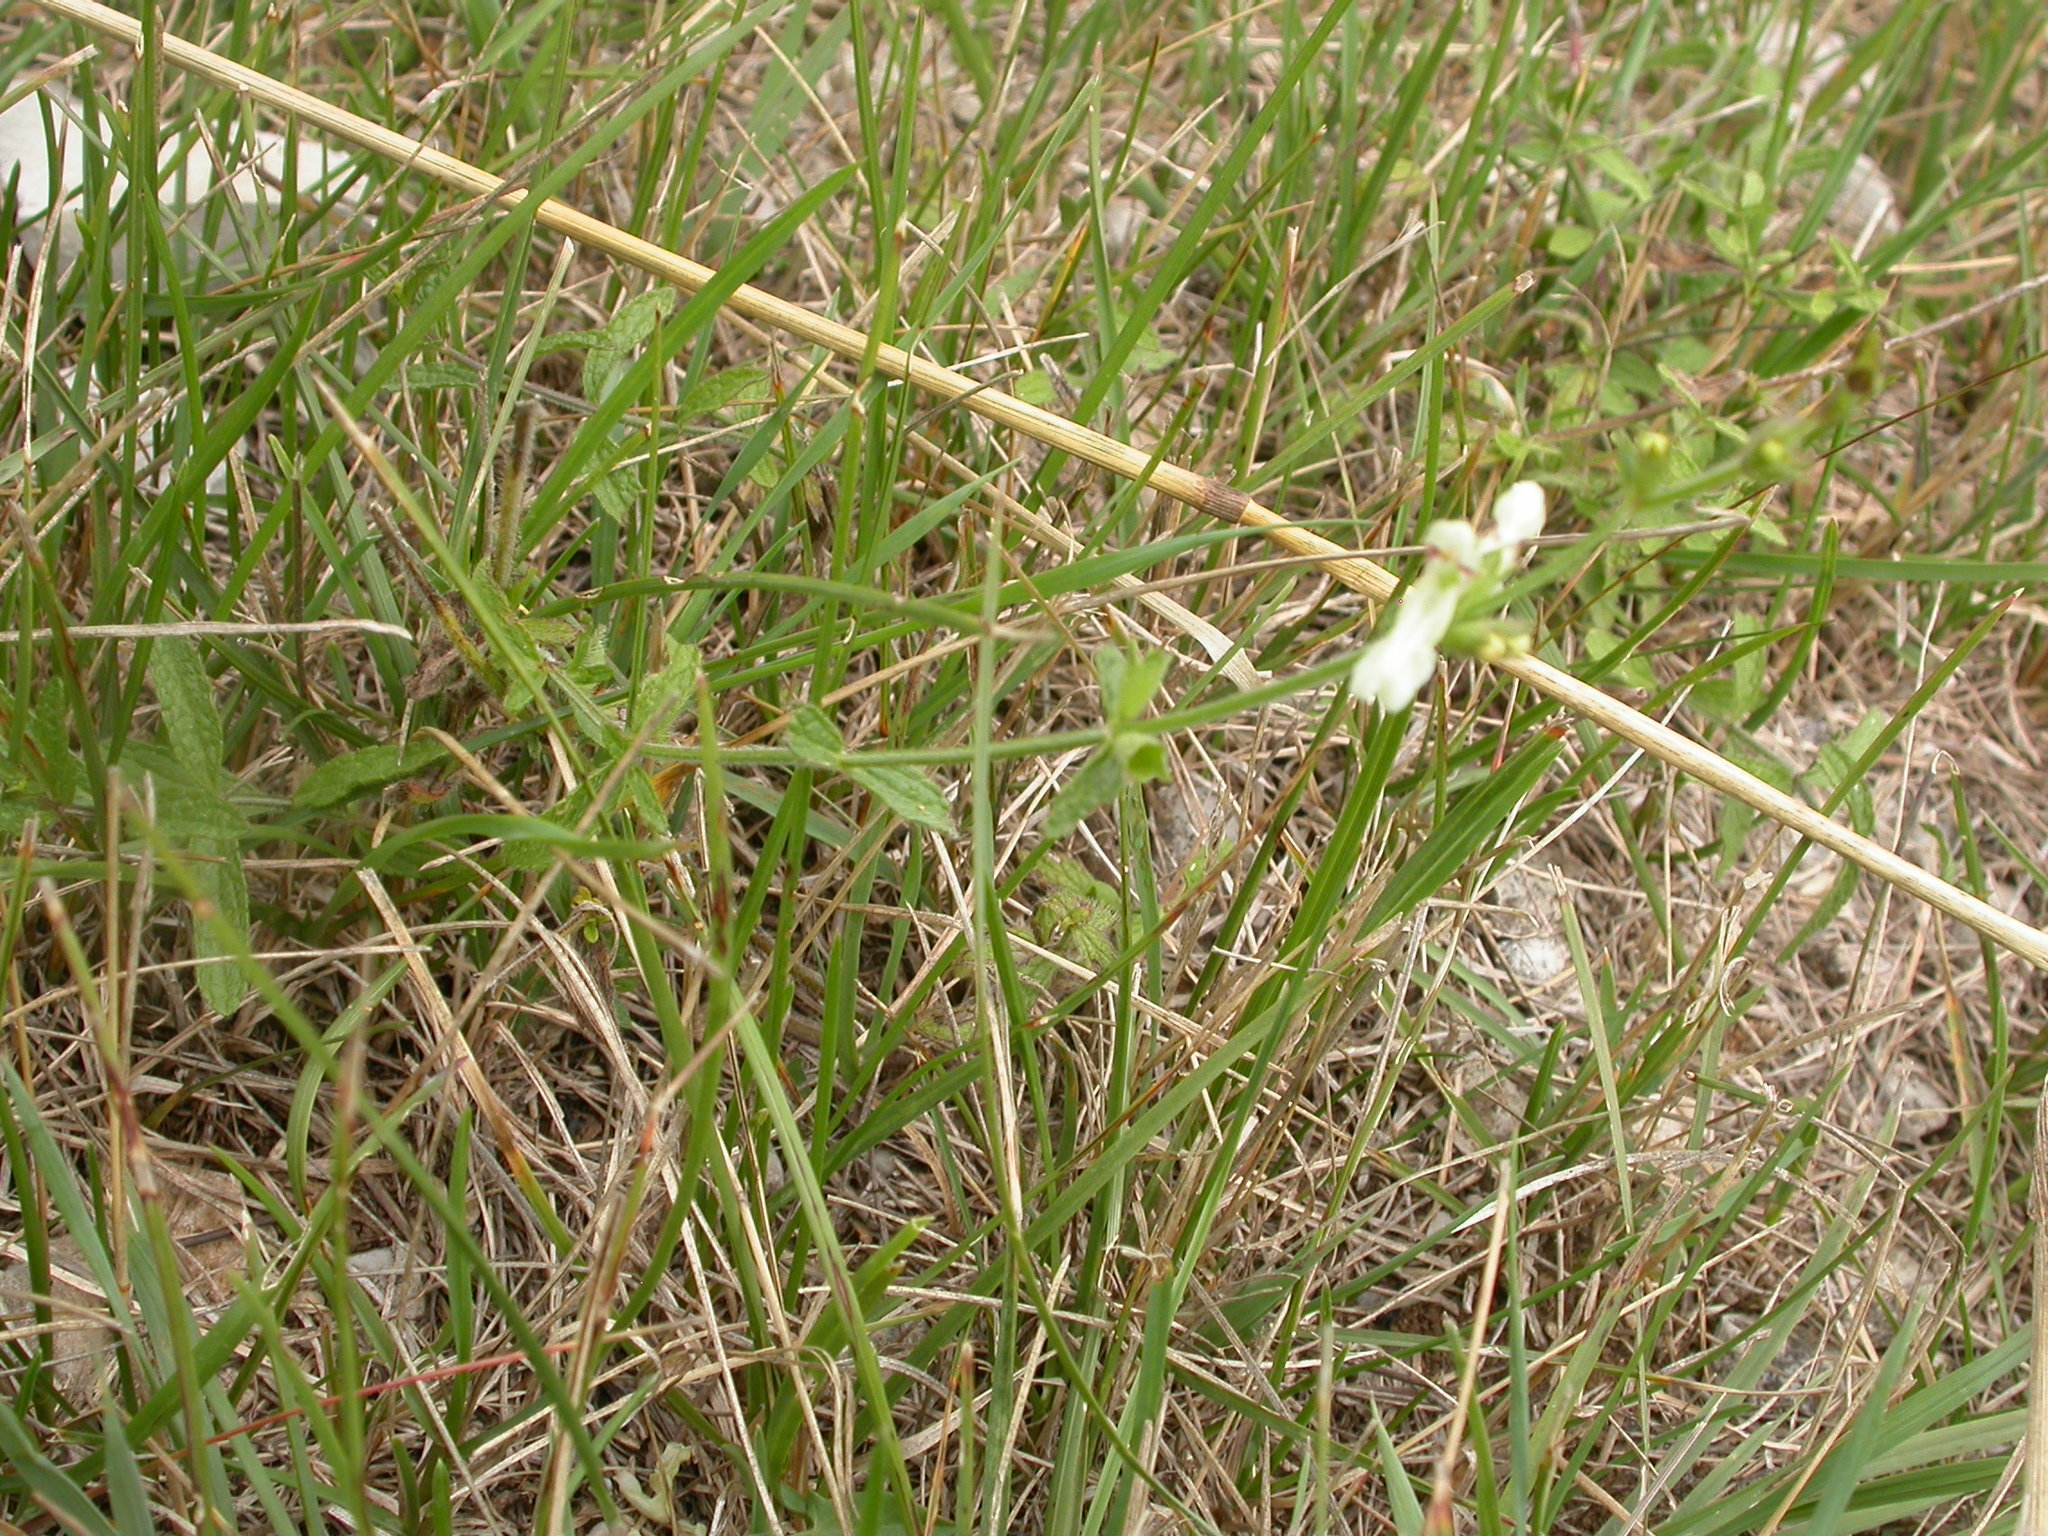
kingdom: Plantae
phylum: Tracheophyta
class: Magnoliopsida
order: Lamiales
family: Lamiaceae
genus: Stachys
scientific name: Stachys recta
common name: Perennial yellow-woundwort
